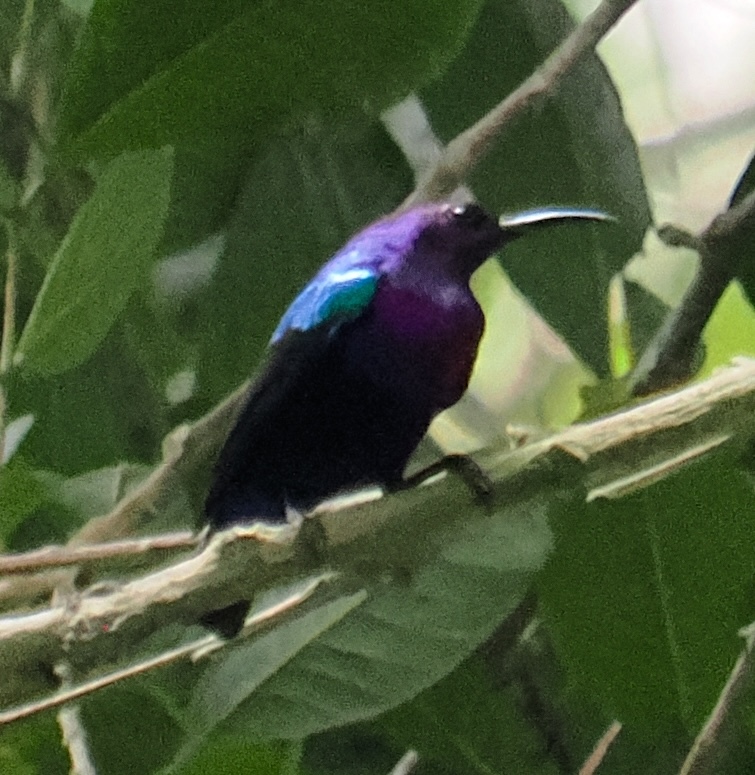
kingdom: Animalia
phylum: Chordata
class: Aves
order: Passeriformes
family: Nectariniidae
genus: Cinnyris
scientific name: Cinnyris coccinigastrus
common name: Splendid sunbird
